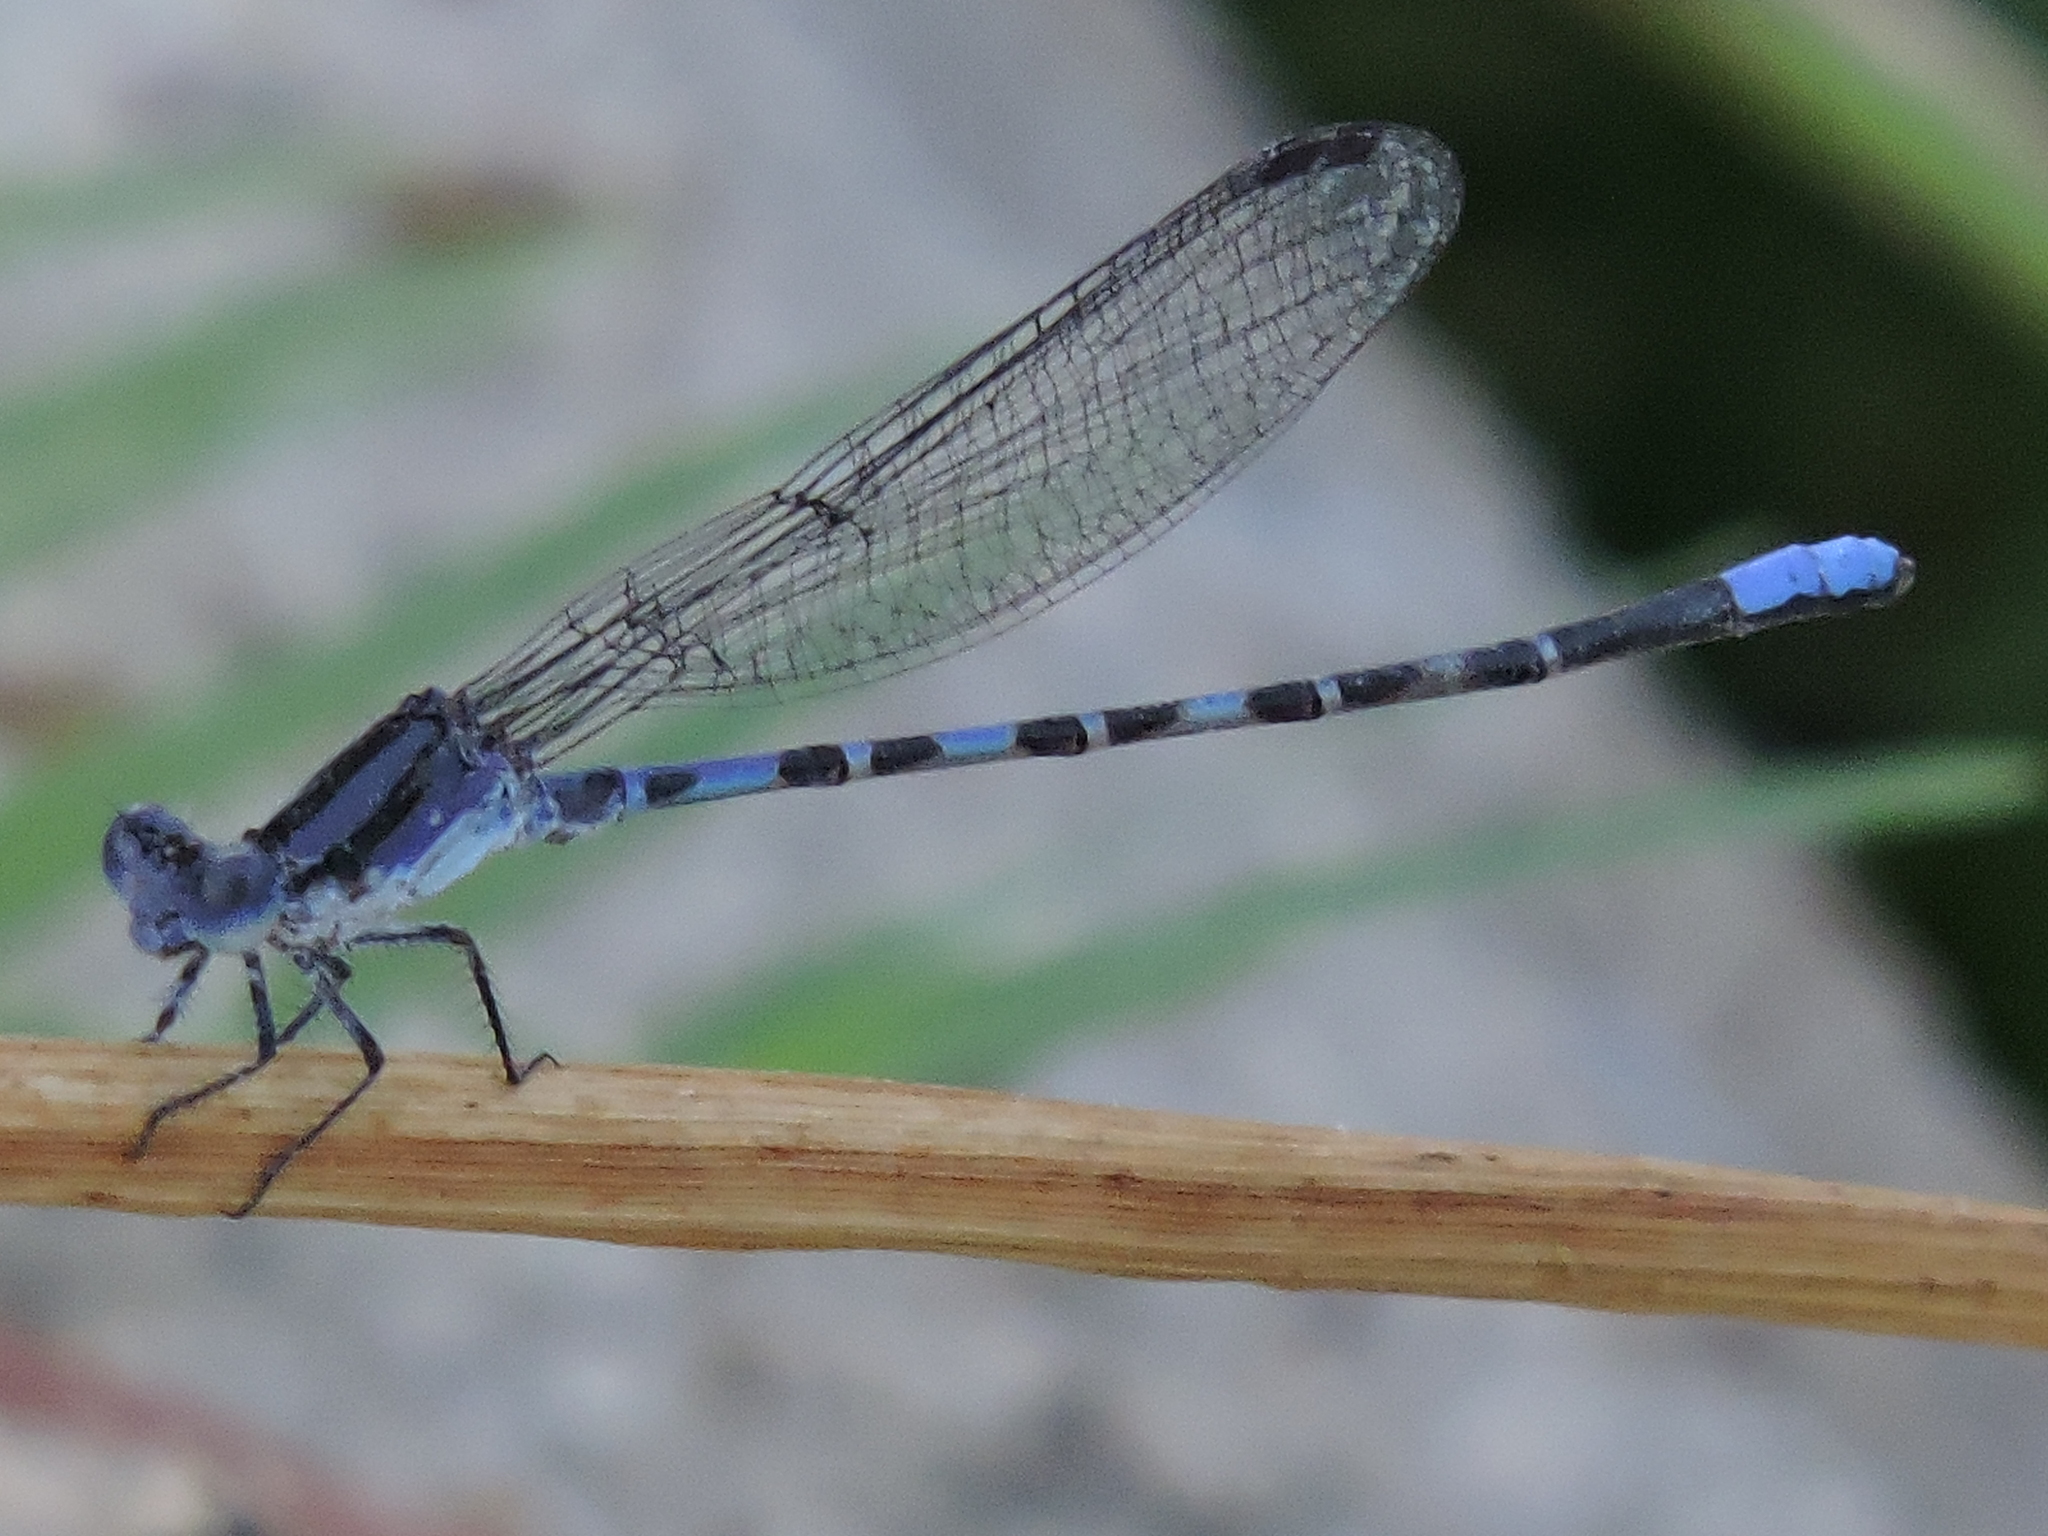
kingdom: Animalia
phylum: Arthropoda
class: Insecta
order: Odonata
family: Coenagrionidae
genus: Argia
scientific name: Argia immunda
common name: Kiowa dancer
